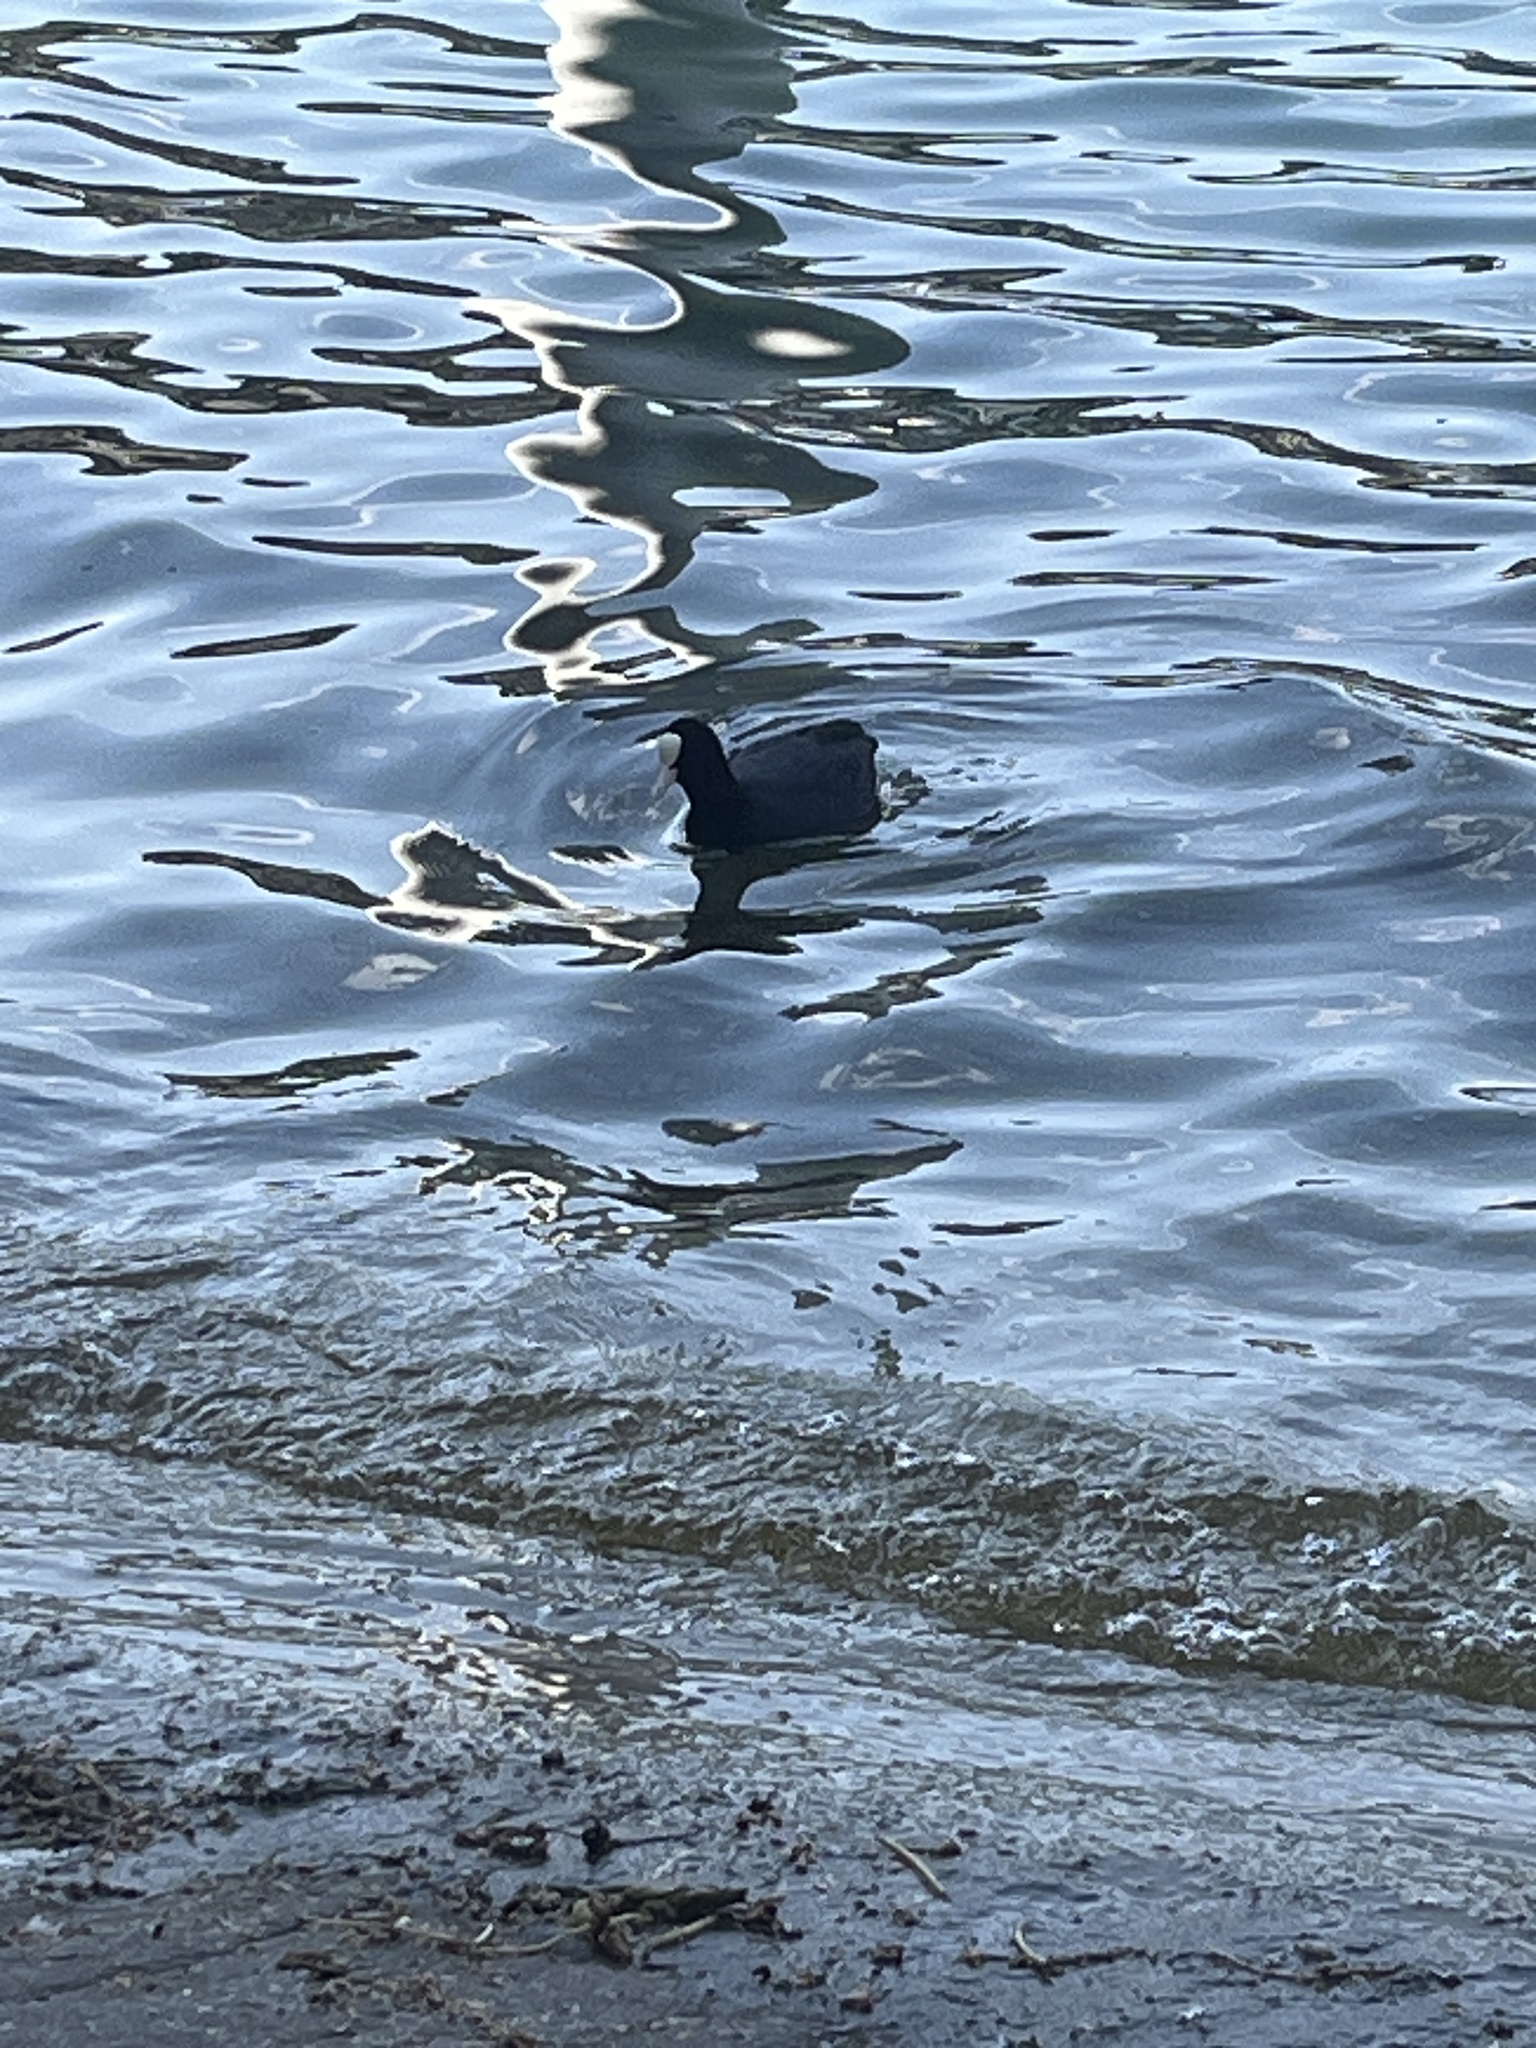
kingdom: Animalia
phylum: Chordata
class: Aves
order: Gruiformes
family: Rallidae
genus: Fulica
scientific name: Fulica atra
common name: Eurasian coot
